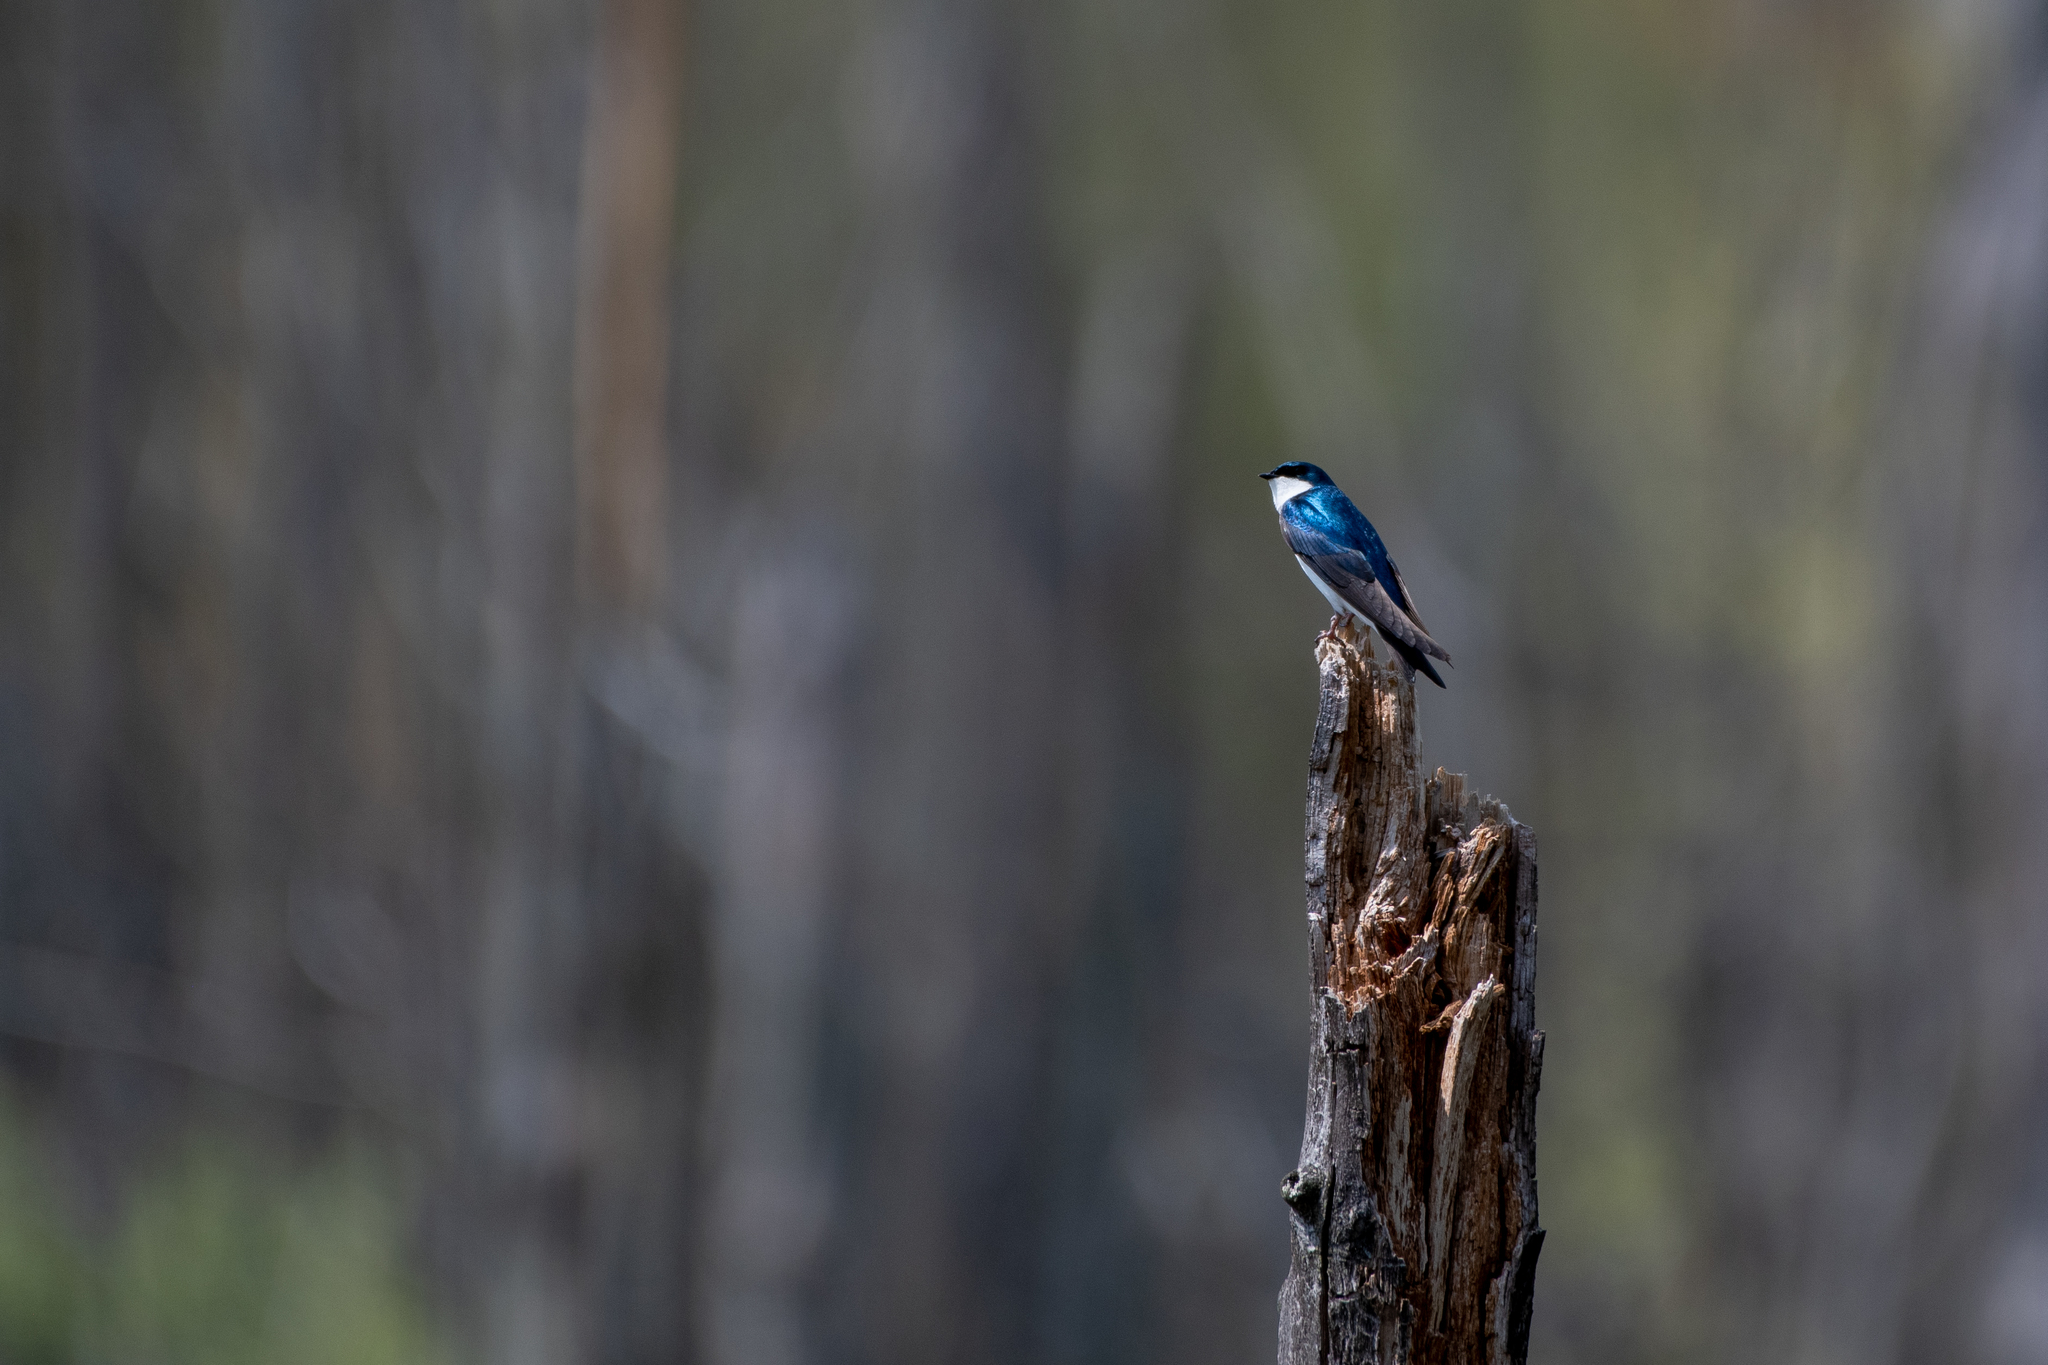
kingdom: Animalia
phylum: Chordata
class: Aves
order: Passeriformes
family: Hirundinidae
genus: Tachycineta
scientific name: Tachycineta bicolor
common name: Tree swallow
